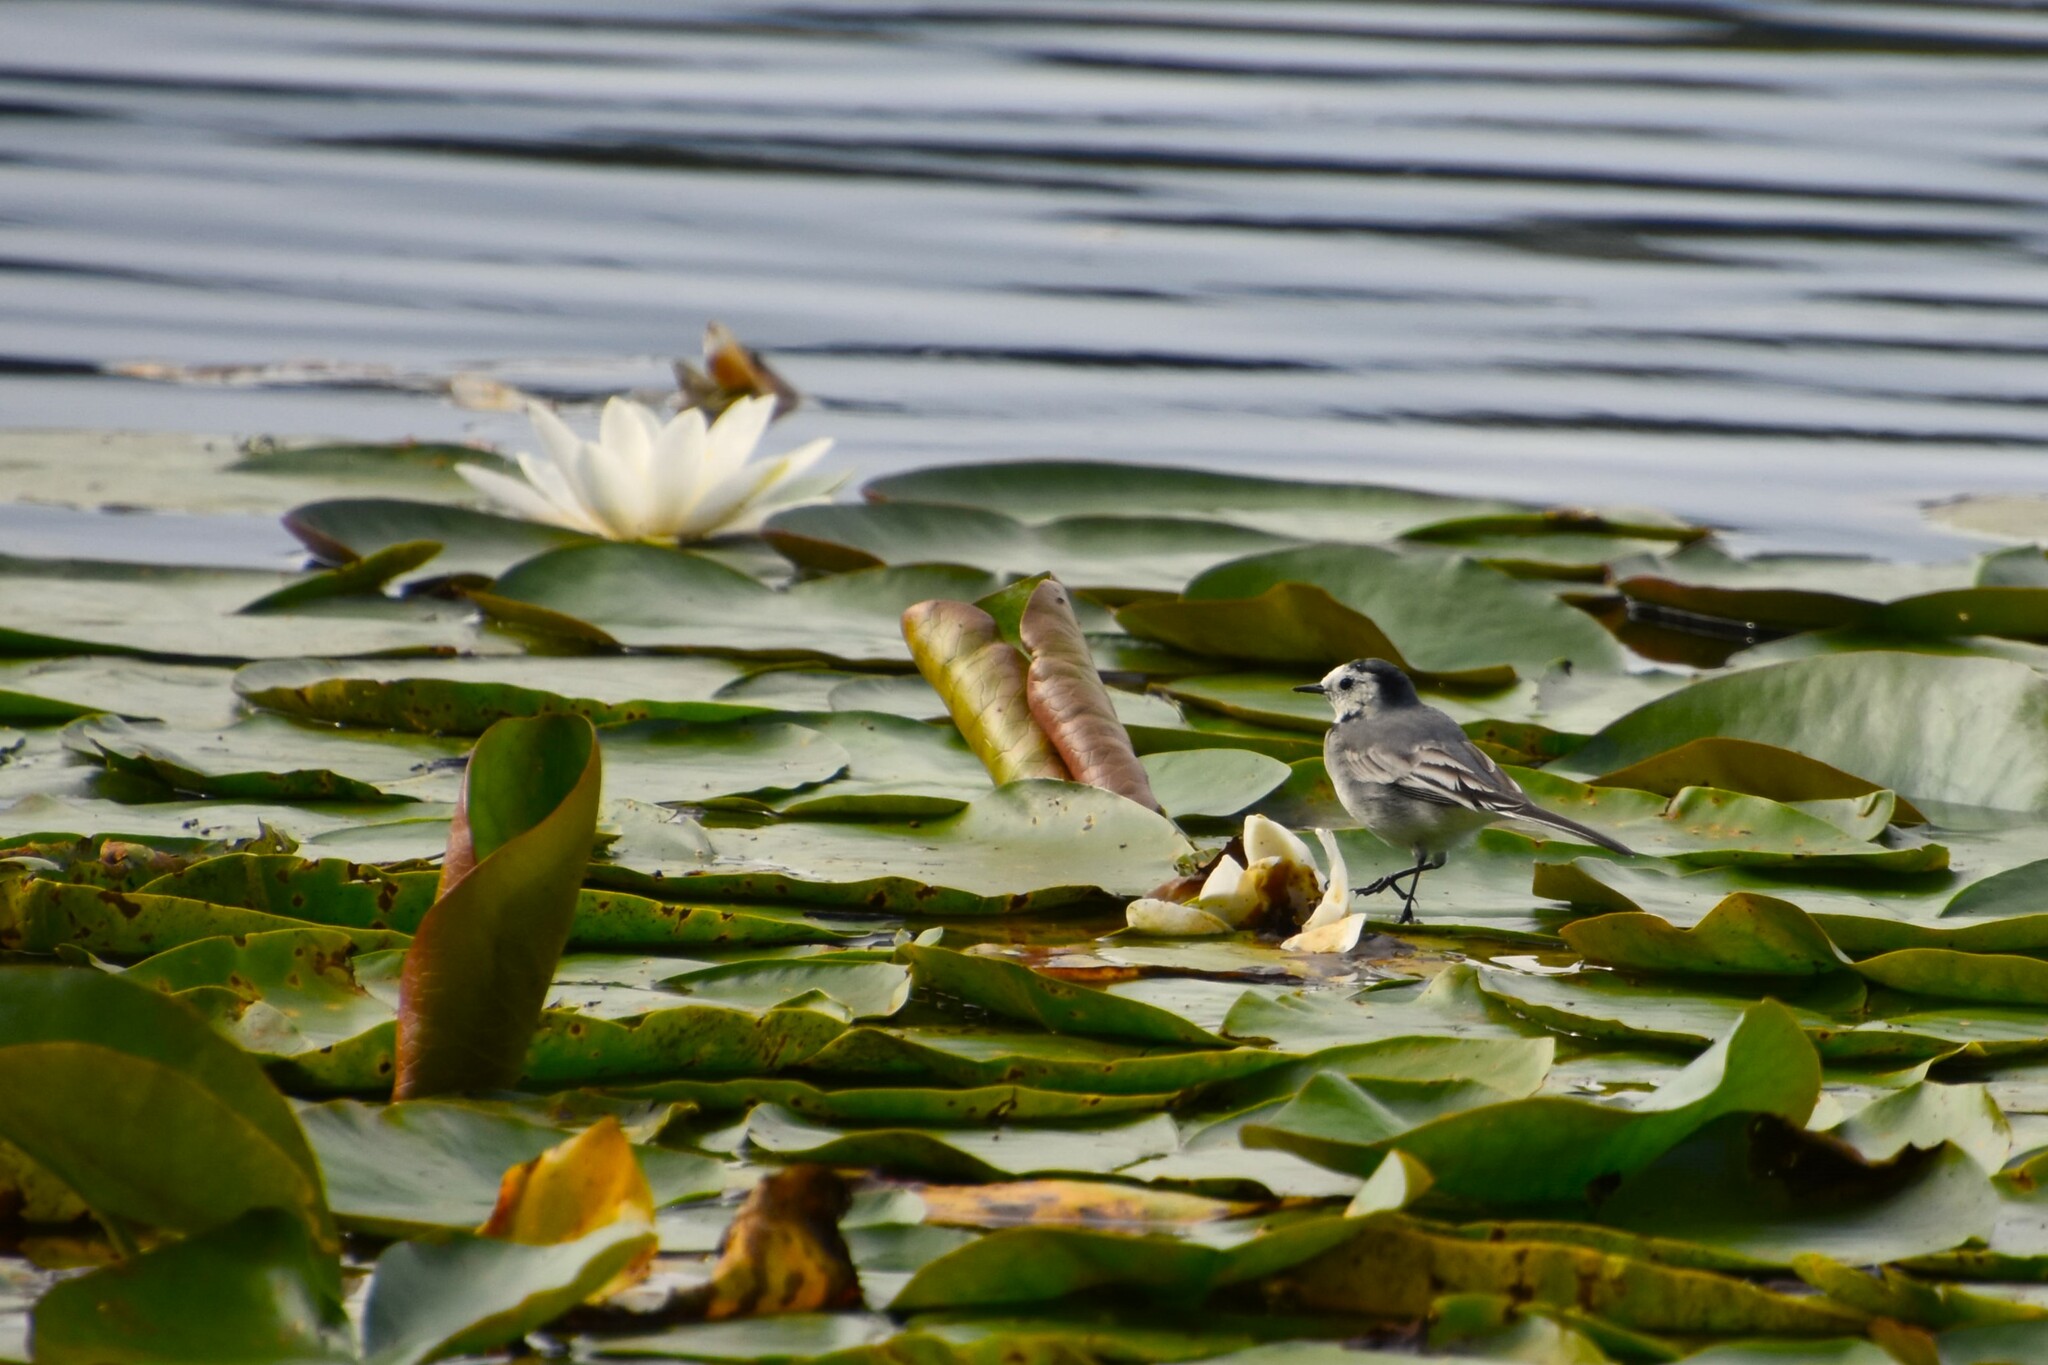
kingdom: Animalia
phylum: Chordata
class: Aves
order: Passeriformes
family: Motacillidae
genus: Motacilla
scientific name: Motacilla alba
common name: White wagtail
